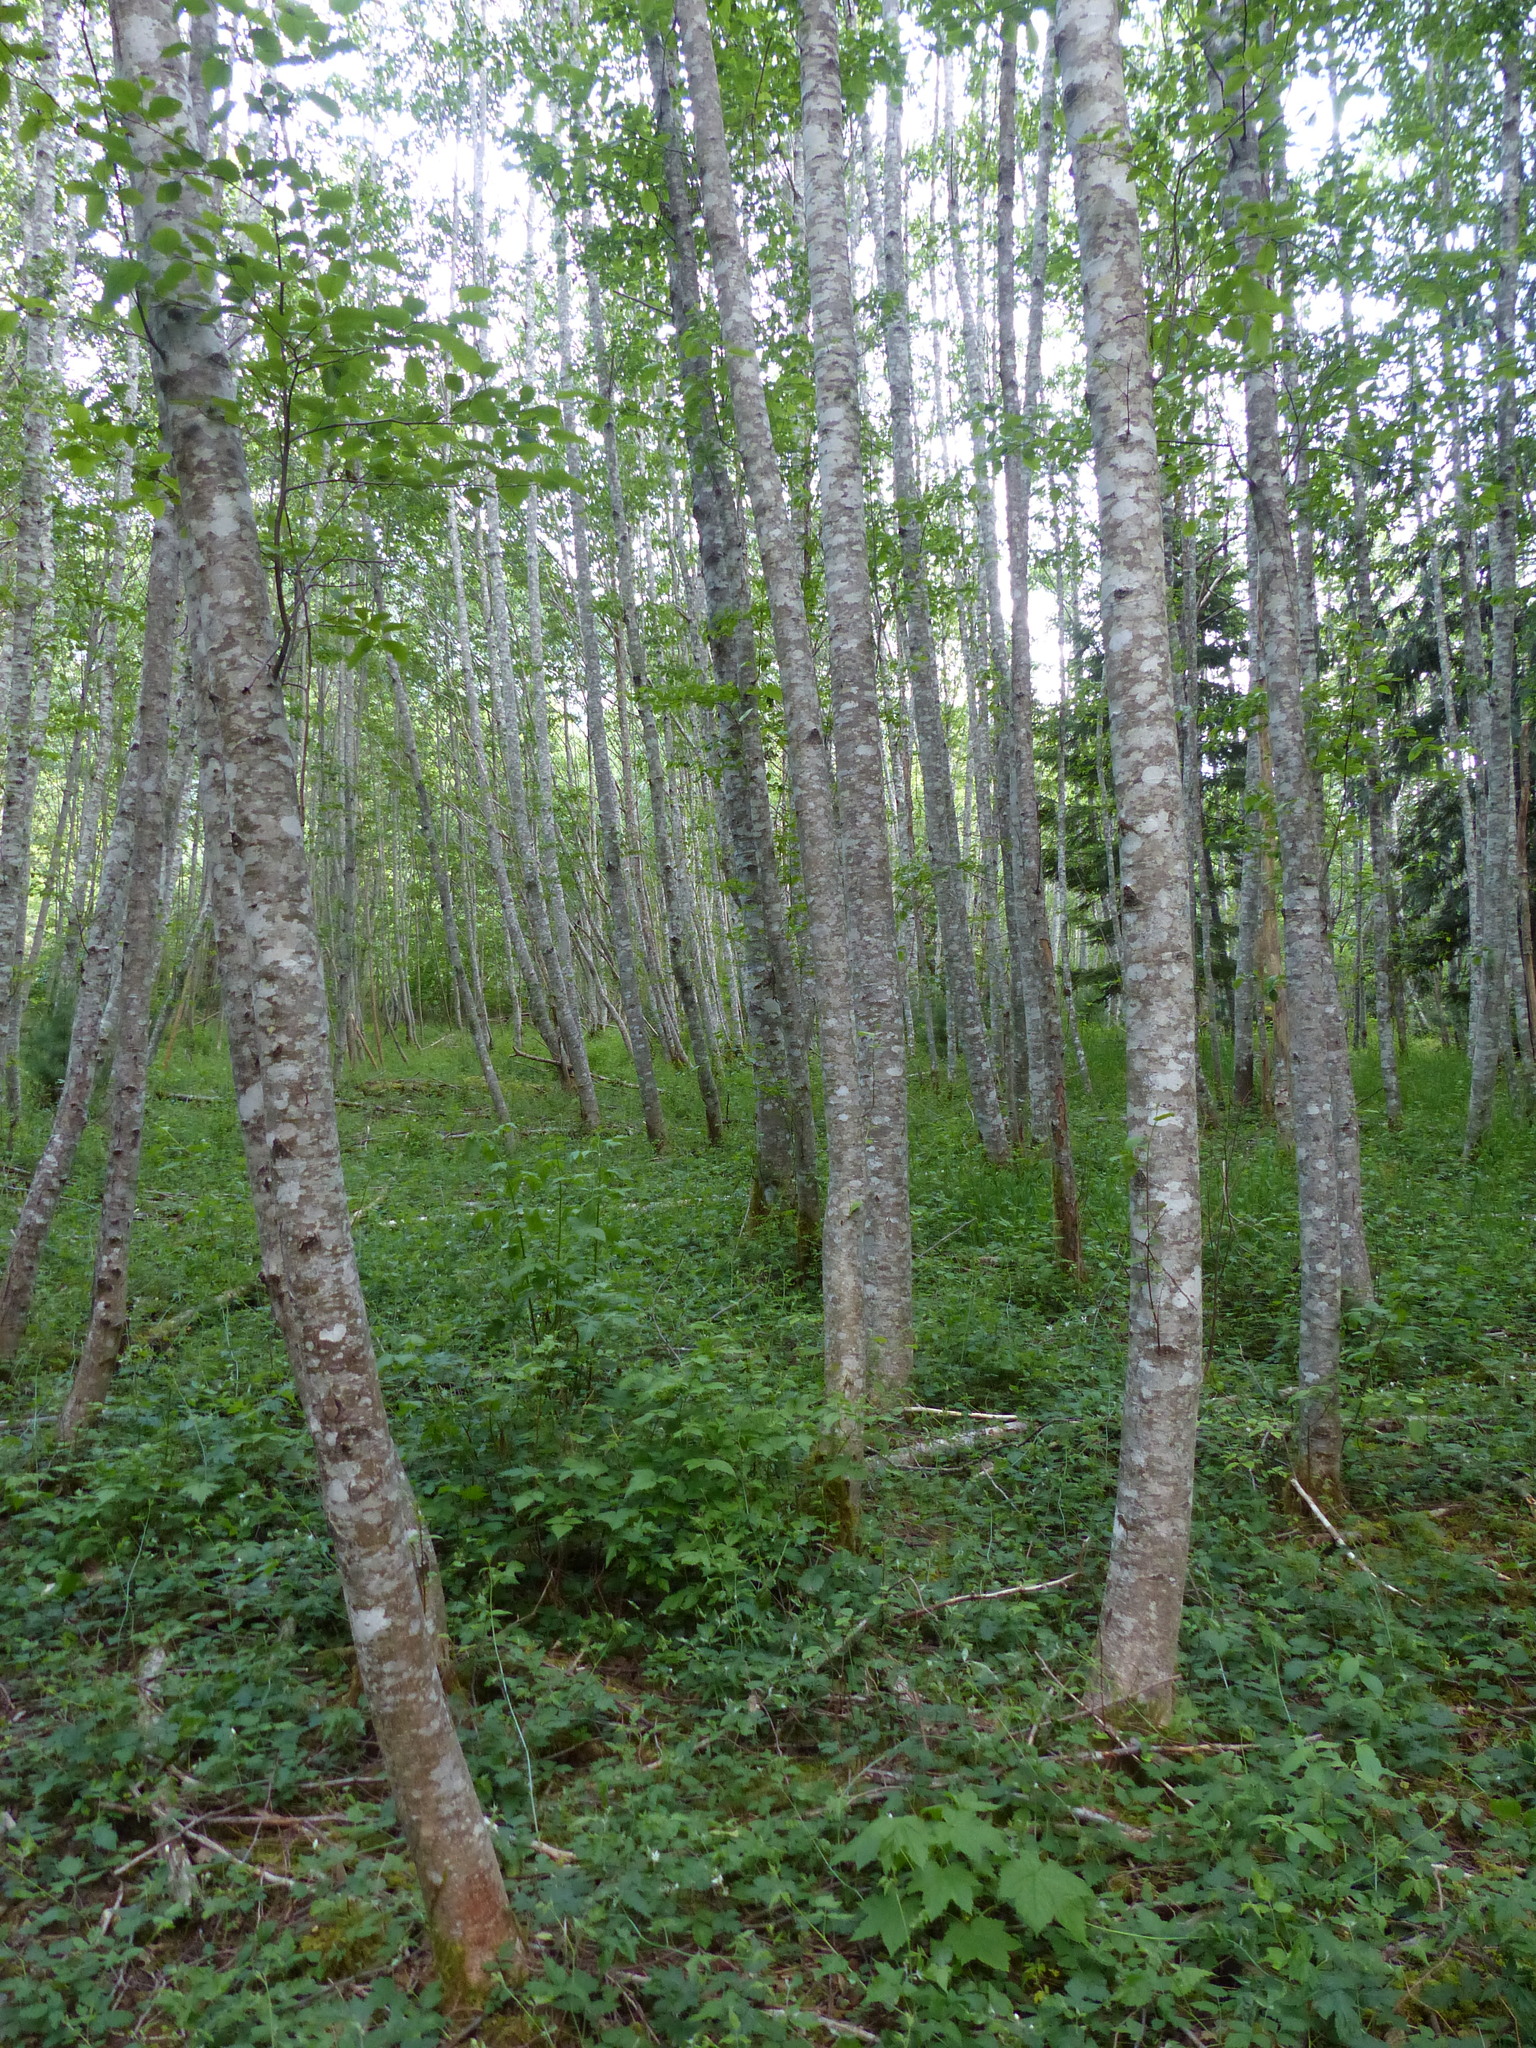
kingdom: Plantae
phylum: Tracheophyta
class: Magnoliopsida
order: Fagales
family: Betulaceae
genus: Alnus
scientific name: Alnus rubra
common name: Red alder
